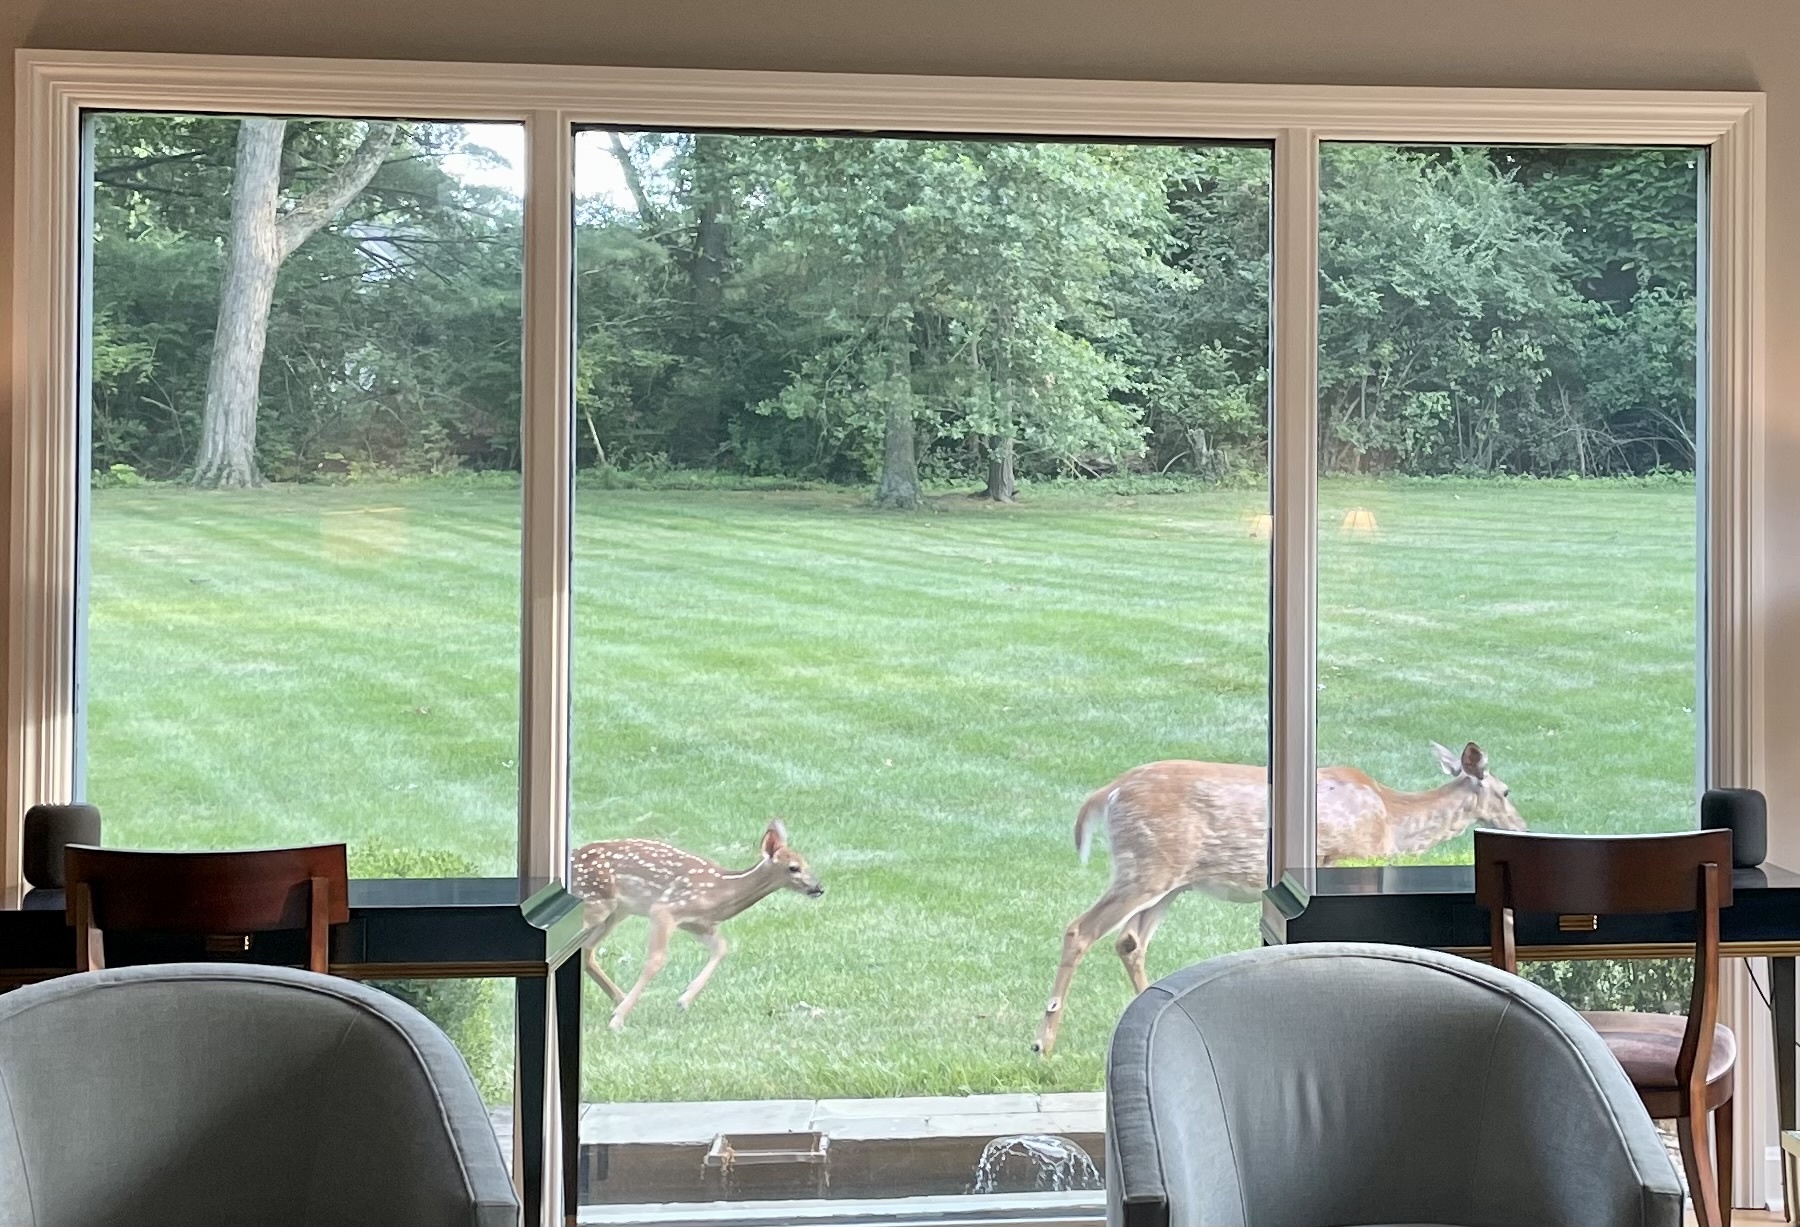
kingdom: Animalia
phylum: Chordata
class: Mammalia
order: Artiodactyla
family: Cervidae
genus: Odocoileus
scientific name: Odocoileus virginianus
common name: White-tailed deer
